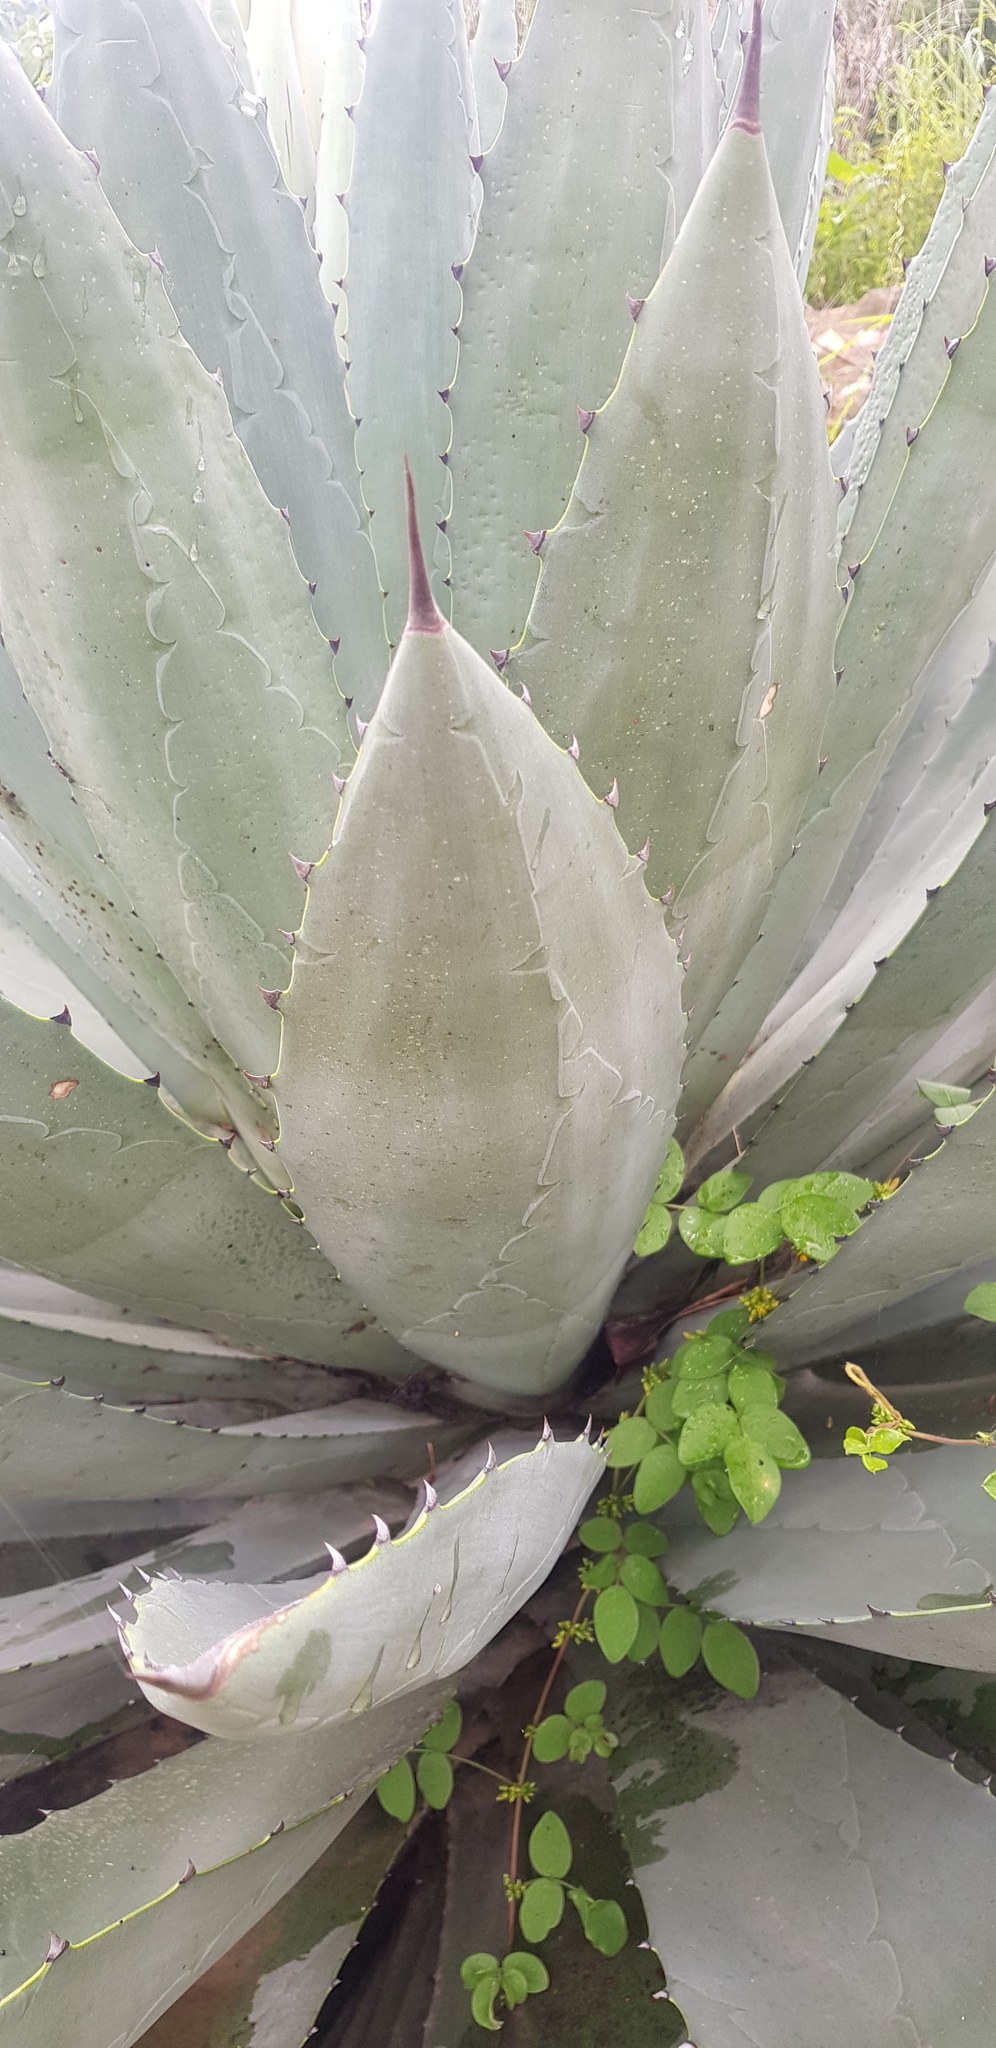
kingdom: Plantae
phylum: Tracheophyta
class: Liliopsida
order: Asparagales
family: Asparagaceae
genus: Agave
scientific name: Agave
